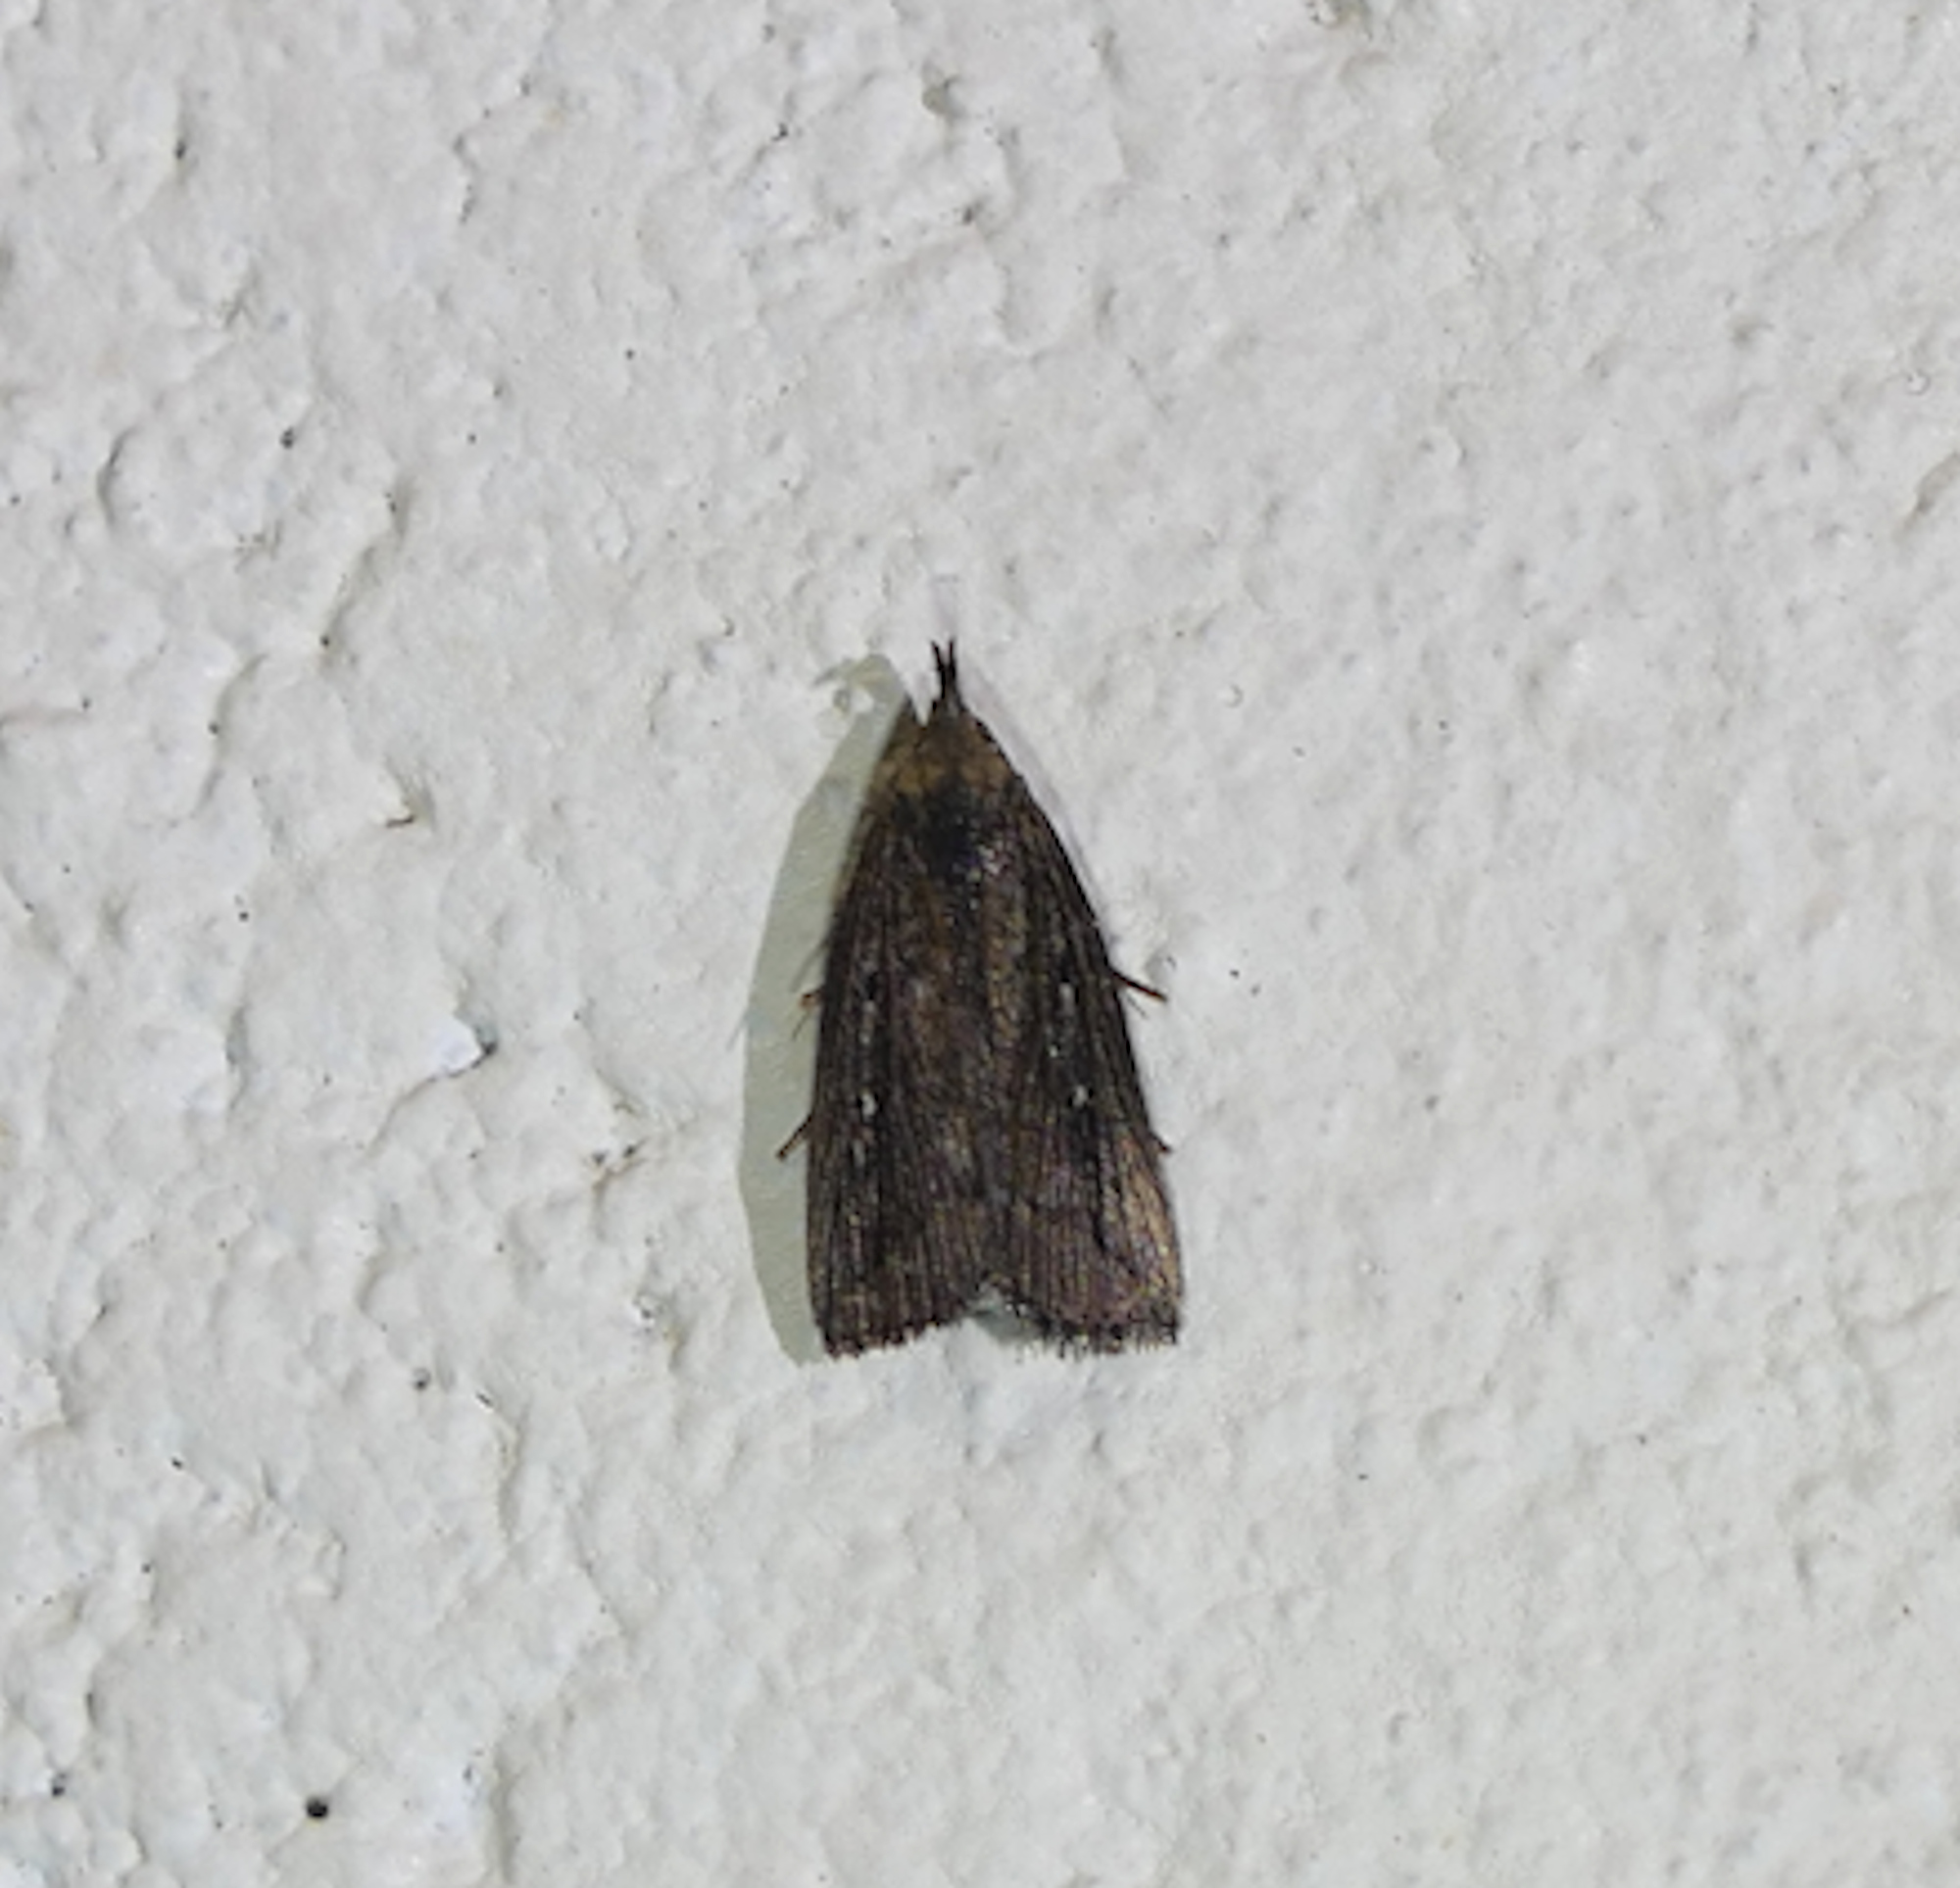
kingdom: Animalia
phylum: Arthropoda
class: Insecta
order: Lepidoptera
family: Erebidae
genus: Macrochilo
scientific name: Macrochilo orciferalis
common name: Bronzy owlet
